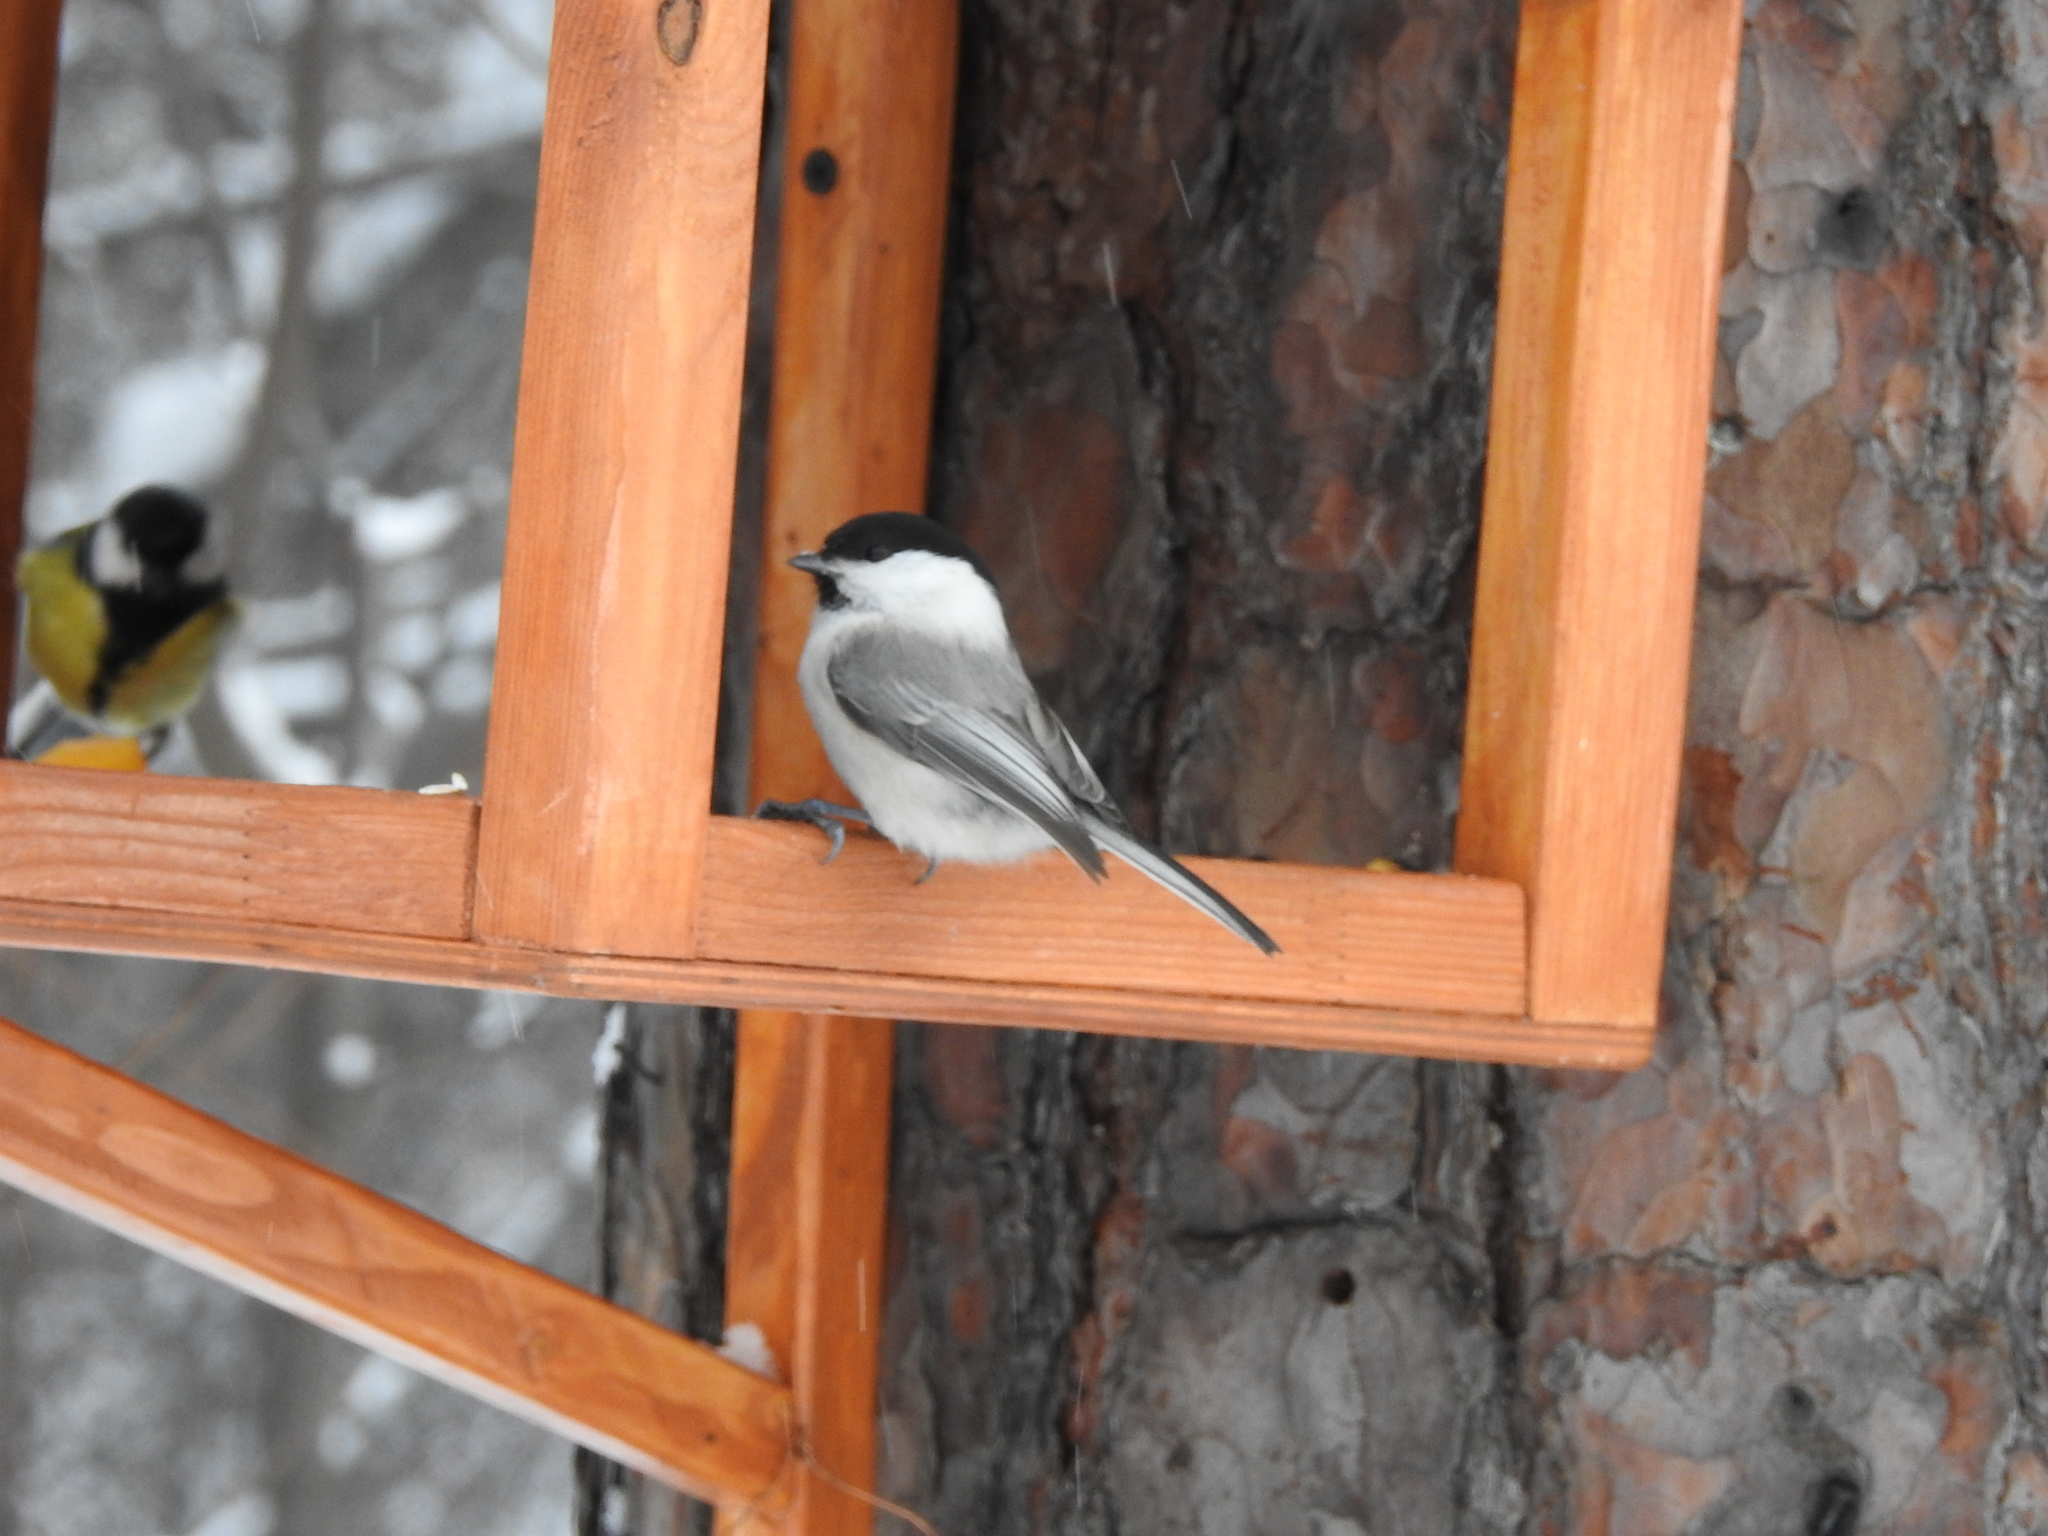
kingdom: Animalia
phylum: Chordata
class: Aves
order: Passeriformes
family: Paridae
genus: Poecile
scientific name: Poecile montanus
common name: Willow tit
